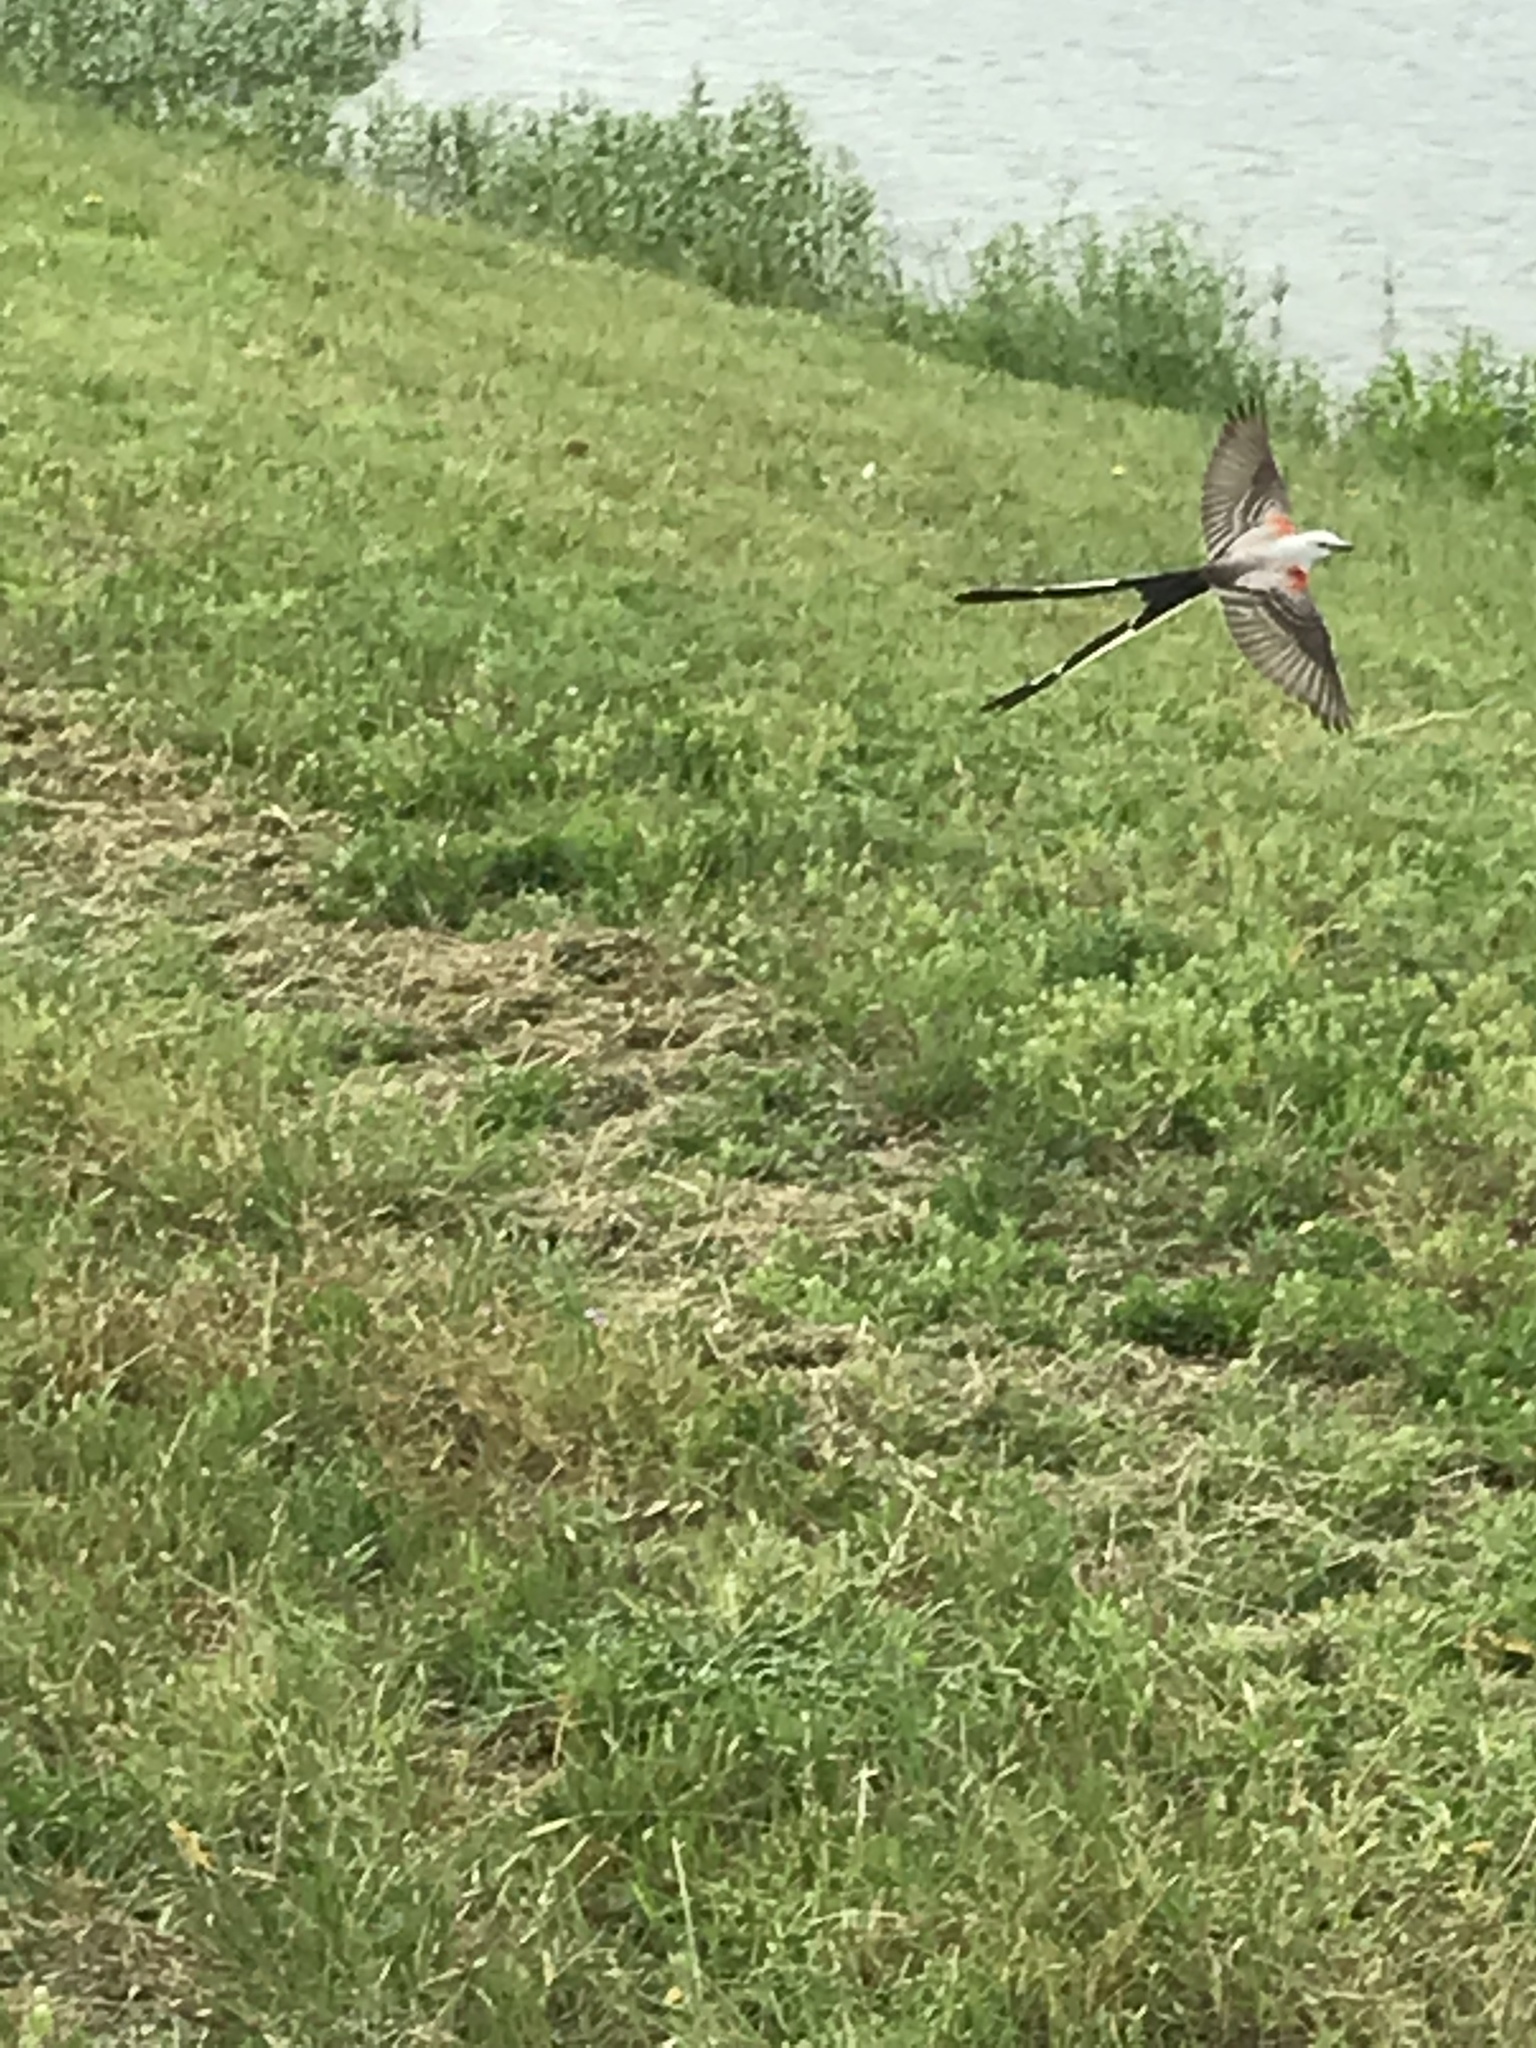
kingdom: Animalia
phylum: Chordata
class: Aves
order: Passeriformes
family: Tyrannidae
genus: Tyrannus
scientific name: Tyrannus forficatus
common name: Scissor-tailed flycatcher
